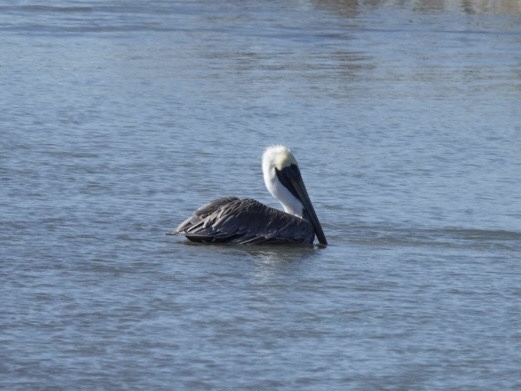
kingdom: Animalia
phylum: Chordata
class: Aves
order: Pelecaniformes
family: Pelecanidae
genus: Pelecanus
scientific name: Pelecanus occidentalis
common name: Brown pelican
